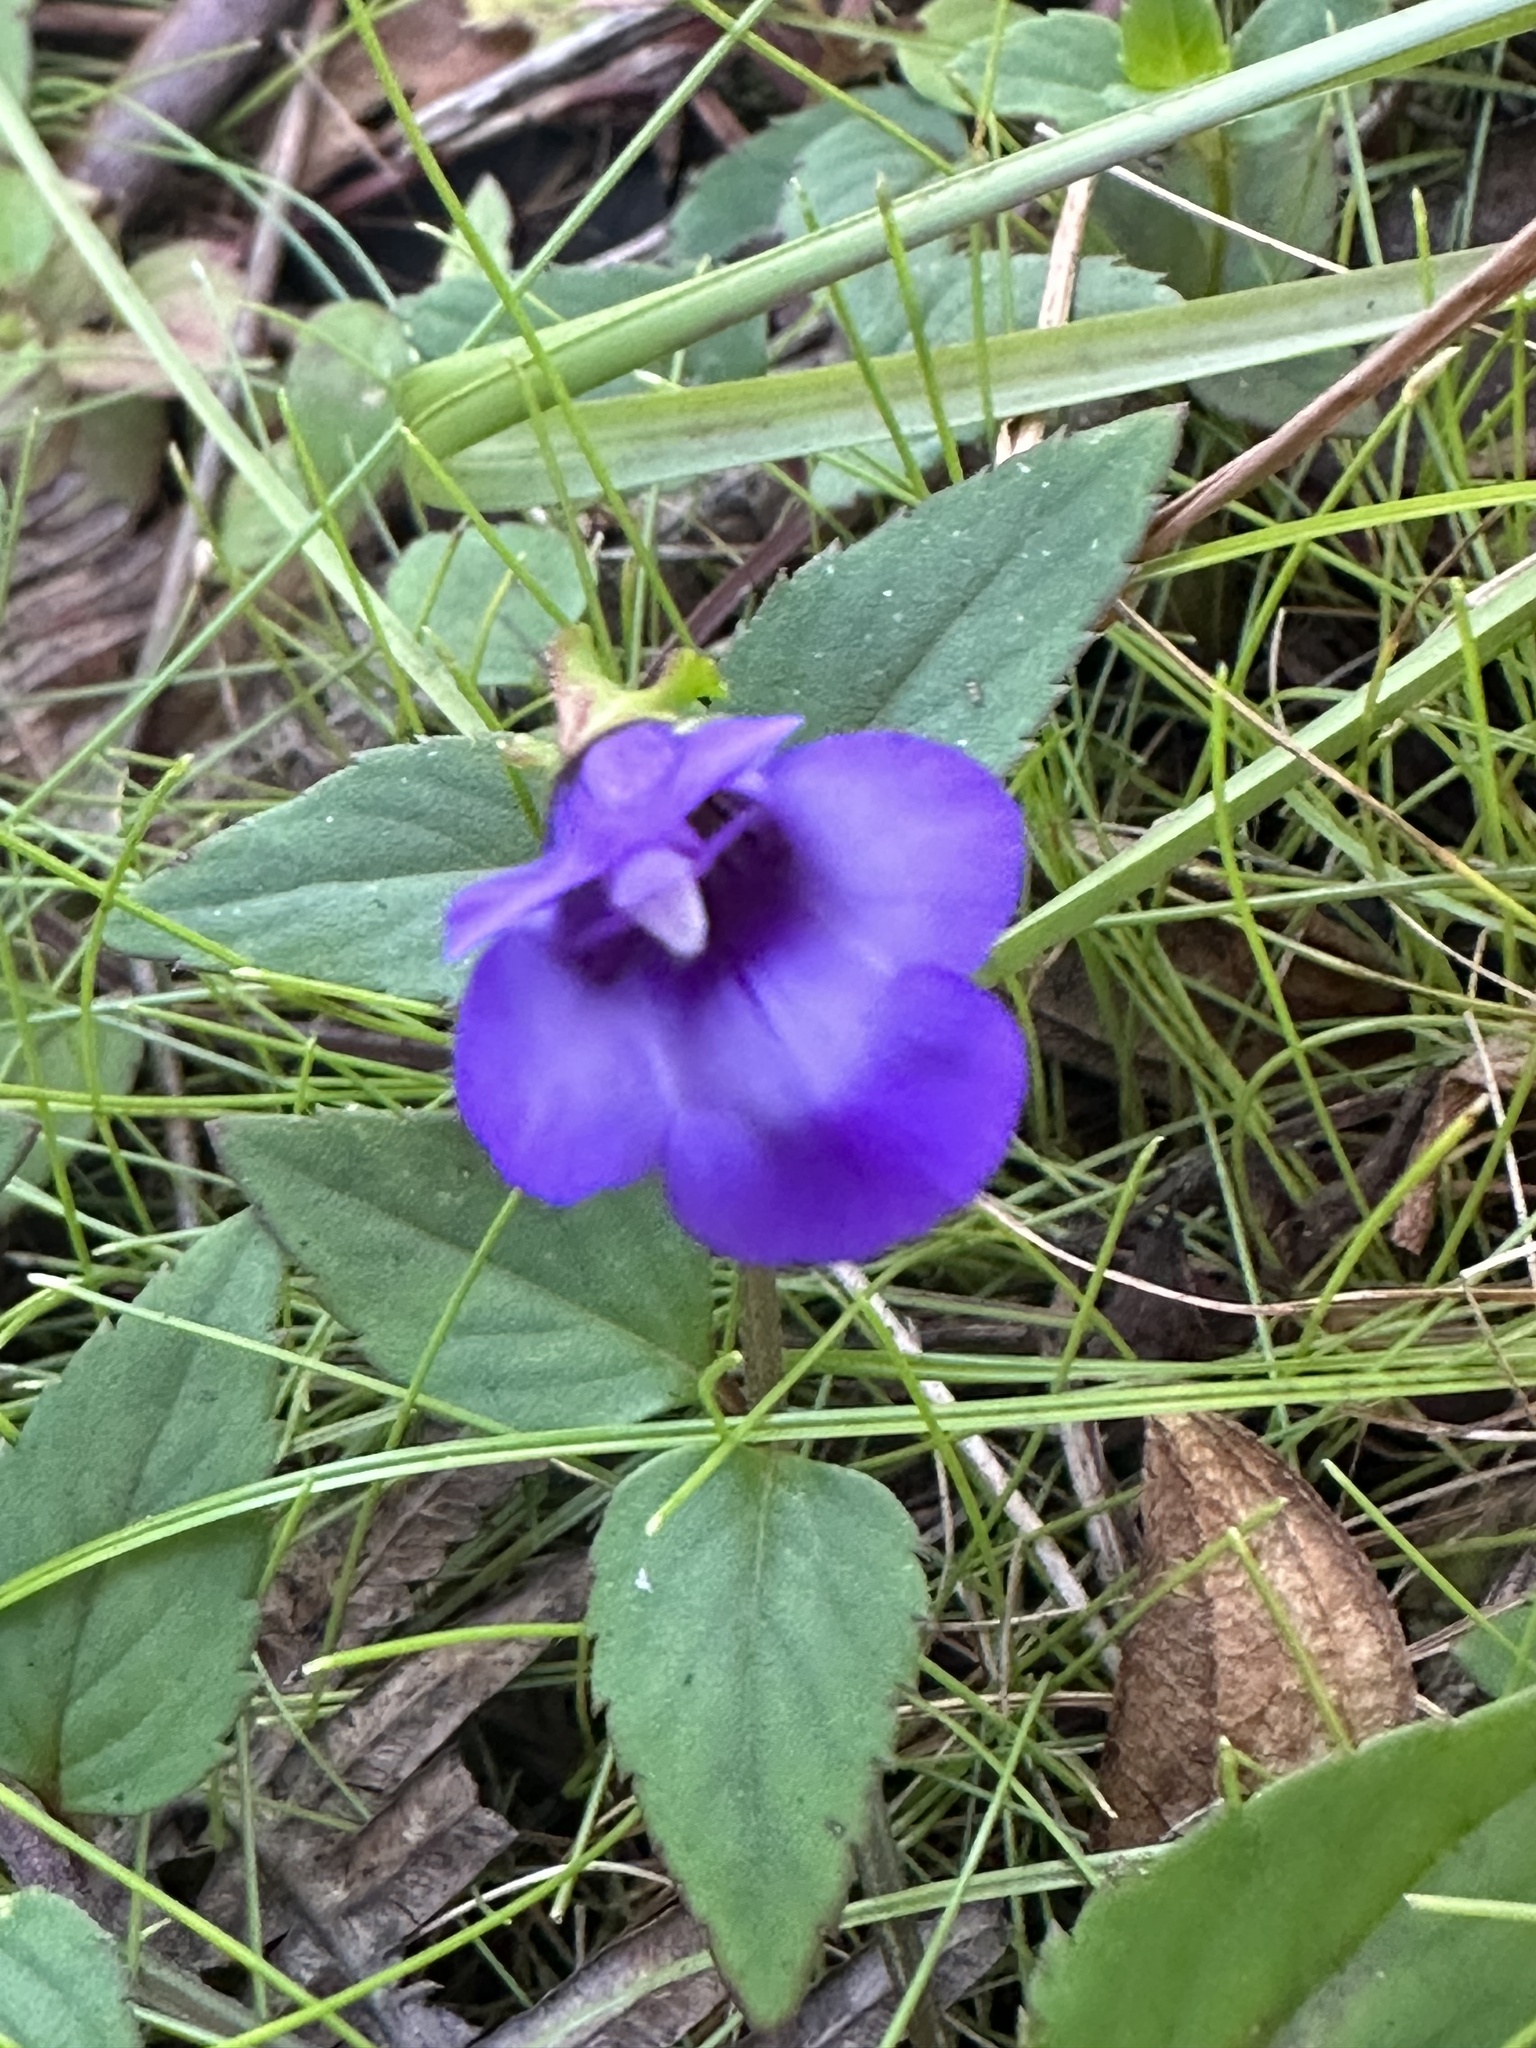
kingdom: Plantae
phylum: Tracheophyta
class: Magnoliopsida
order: Lamiales
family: Linderniaceae
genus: Torenia
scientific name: Torenia asiatica
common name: Wishbone flower
